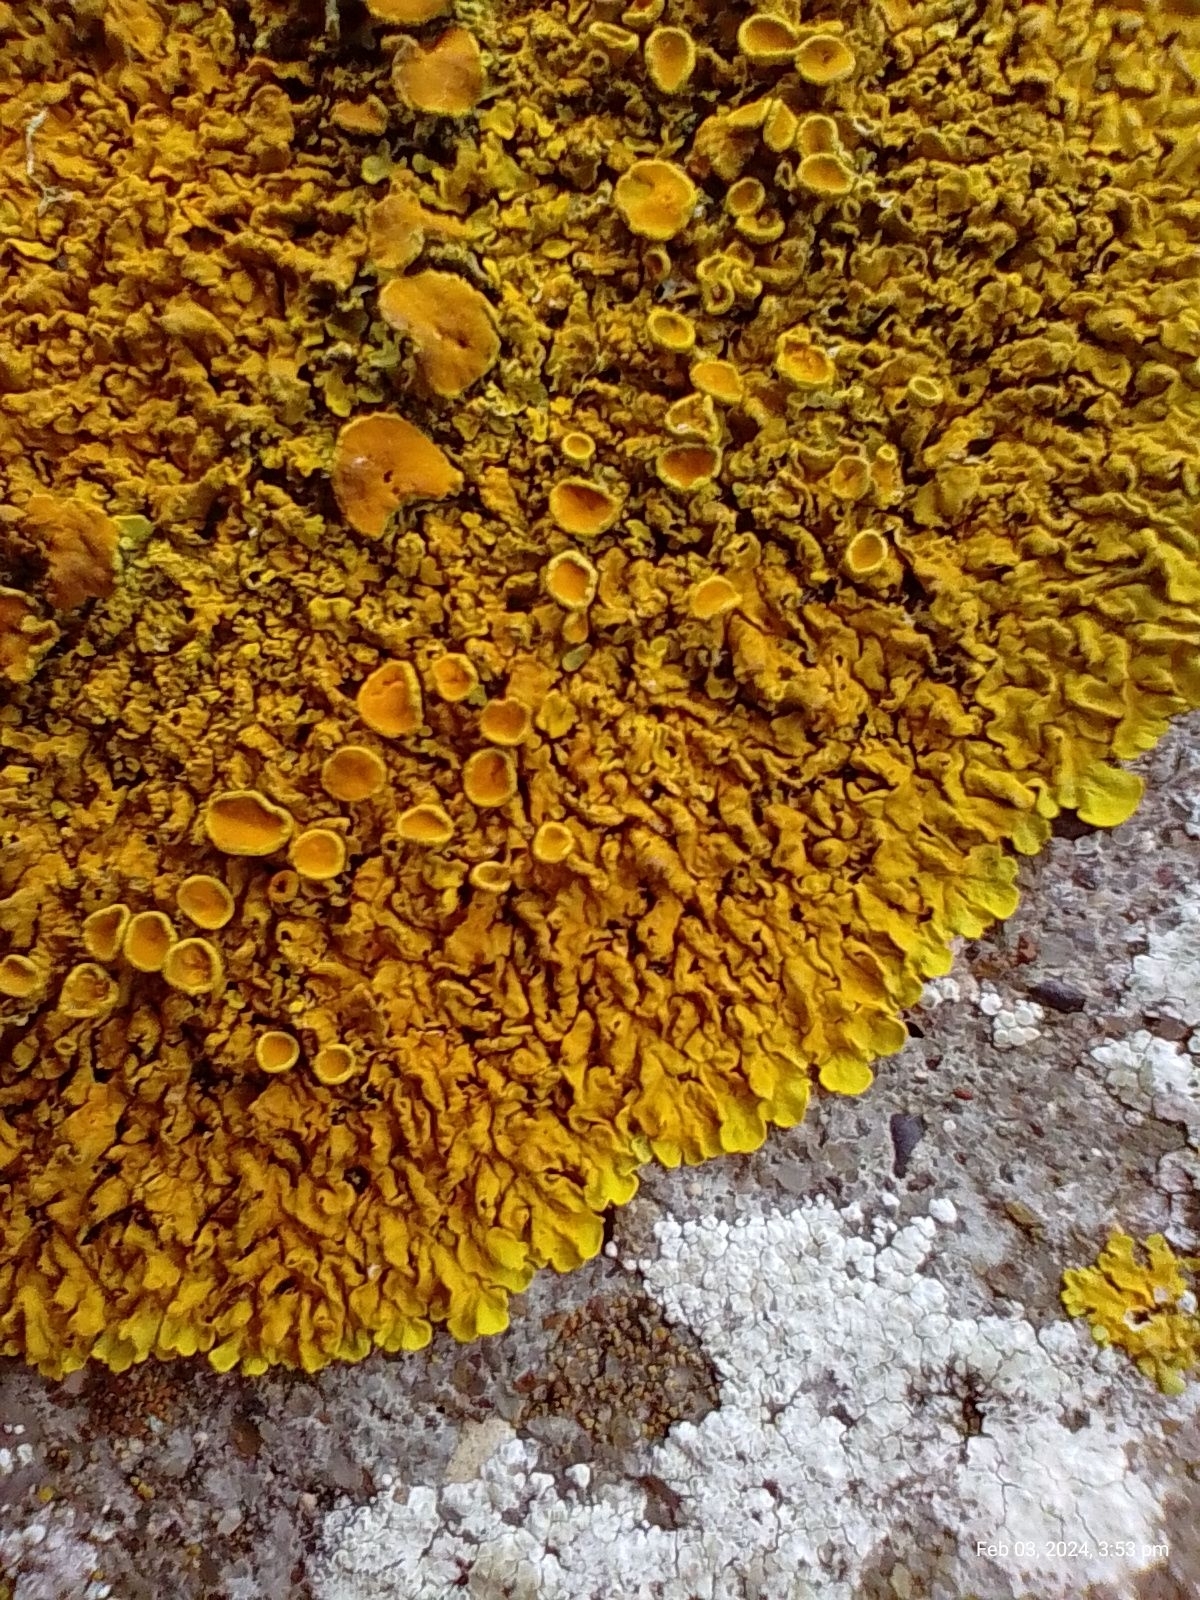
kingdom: Fungi
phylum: Ascomycota
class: Lecanoromycetes
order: Teloschistales
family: Teloschistaceae
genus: Xanthoria
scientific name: Xanthoria calcicola
